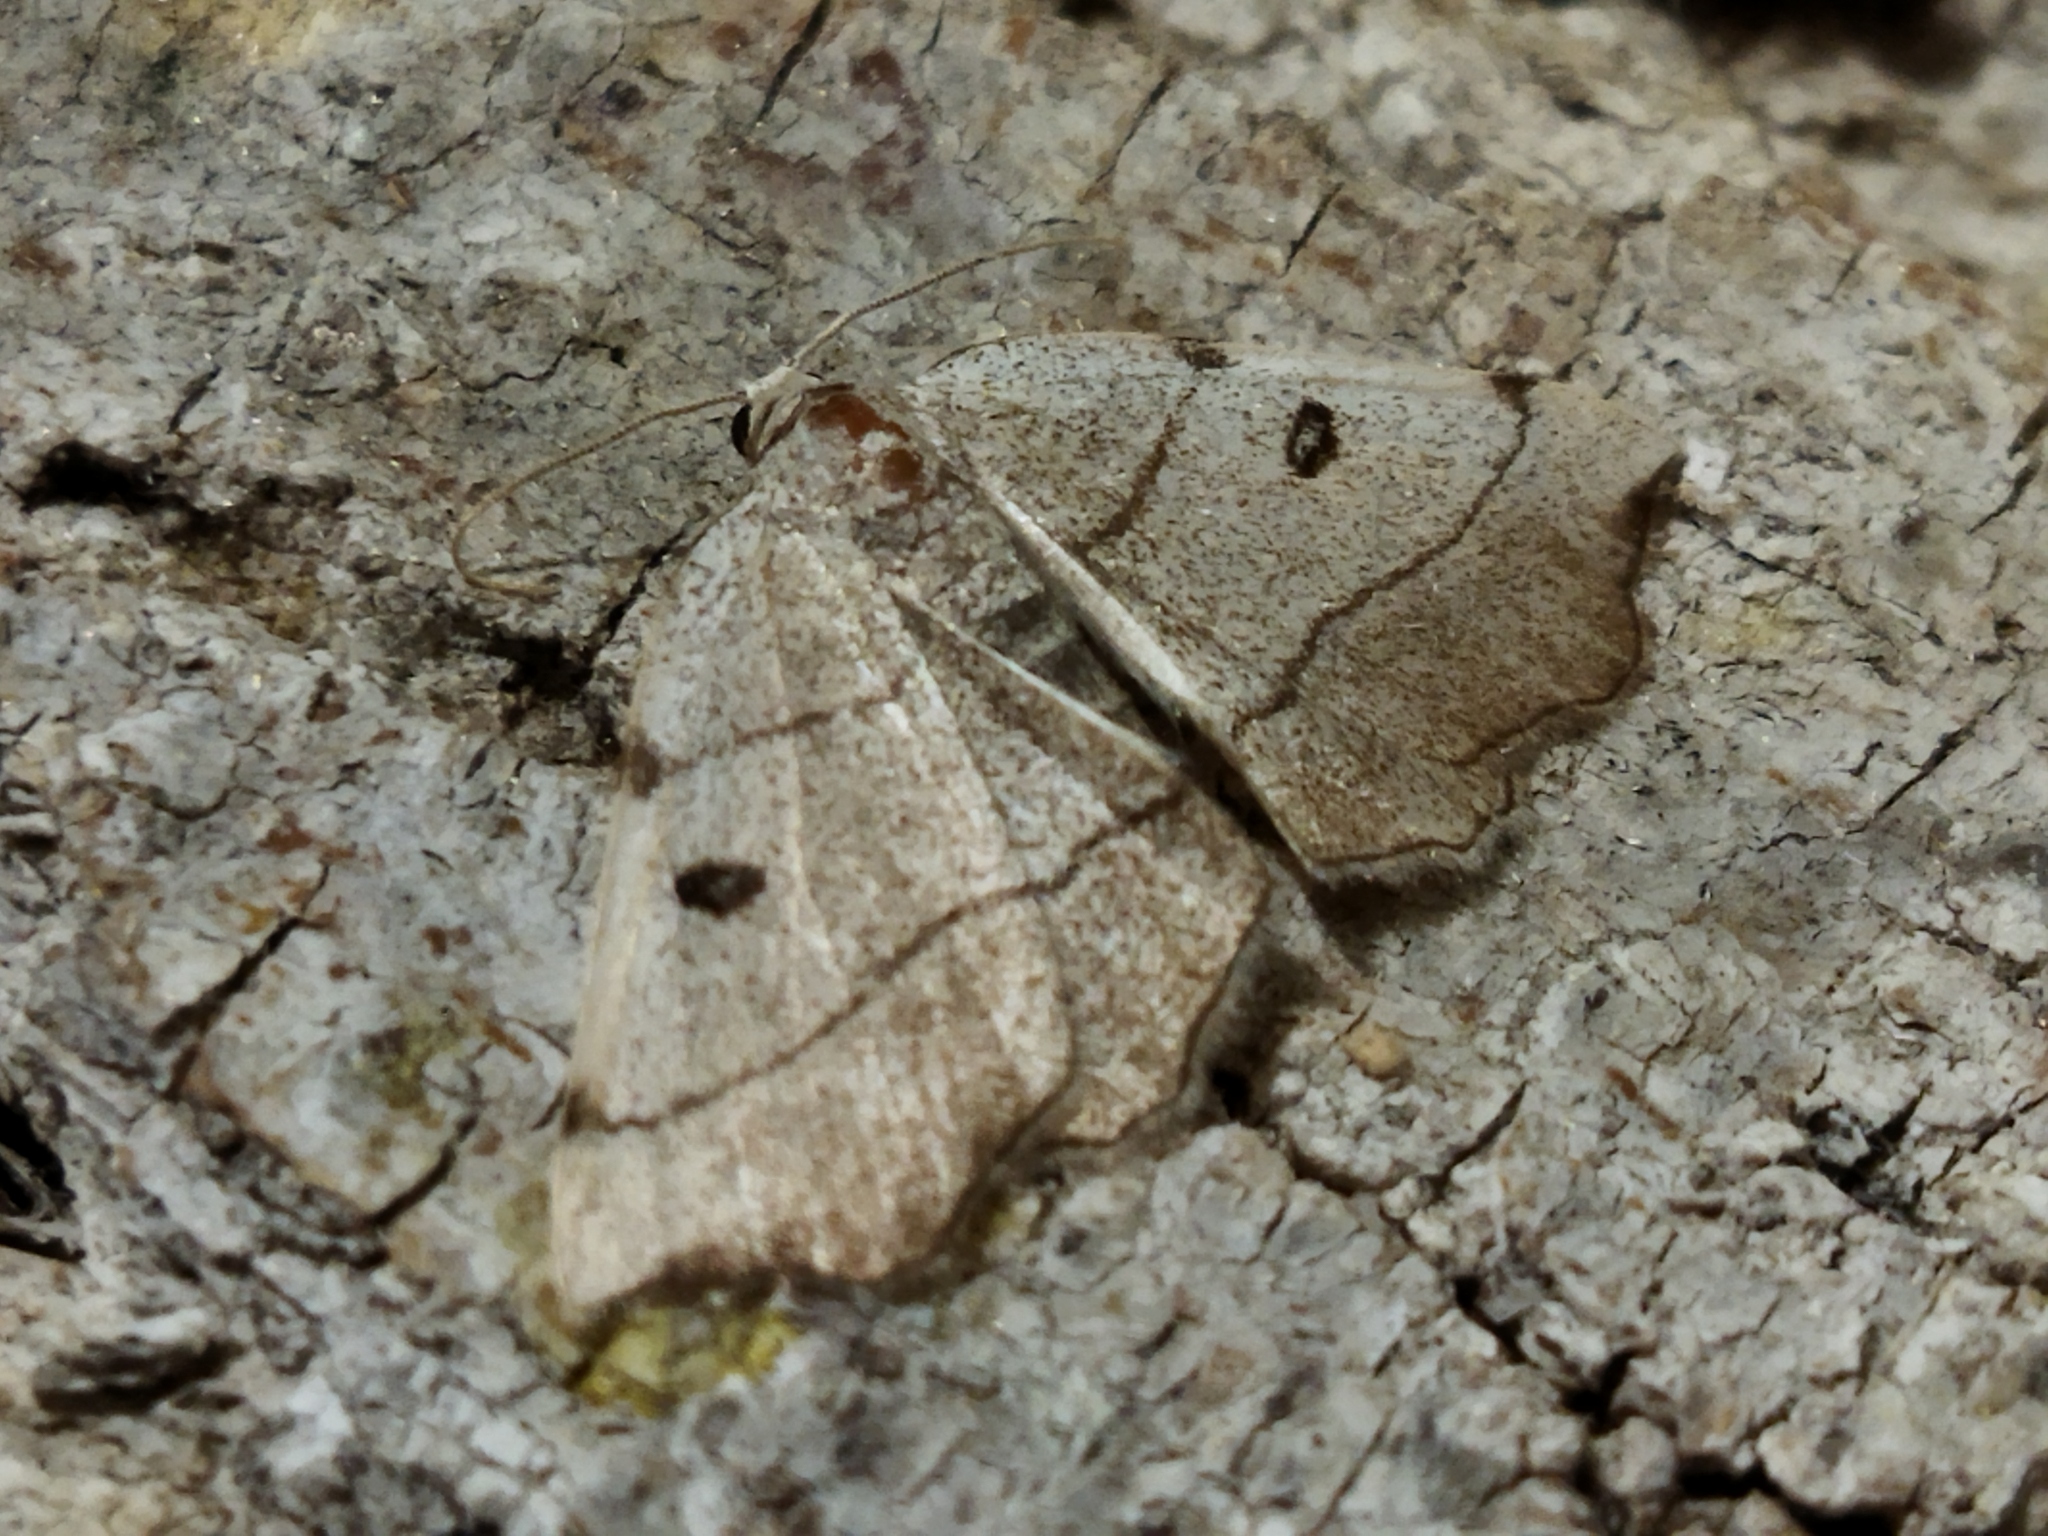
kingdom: Animalia
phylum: Arthropoda
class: Insecta
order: Lepidoptera
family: Geometridae
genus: Eilicrinia
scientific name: Eilicrinia trinotata
